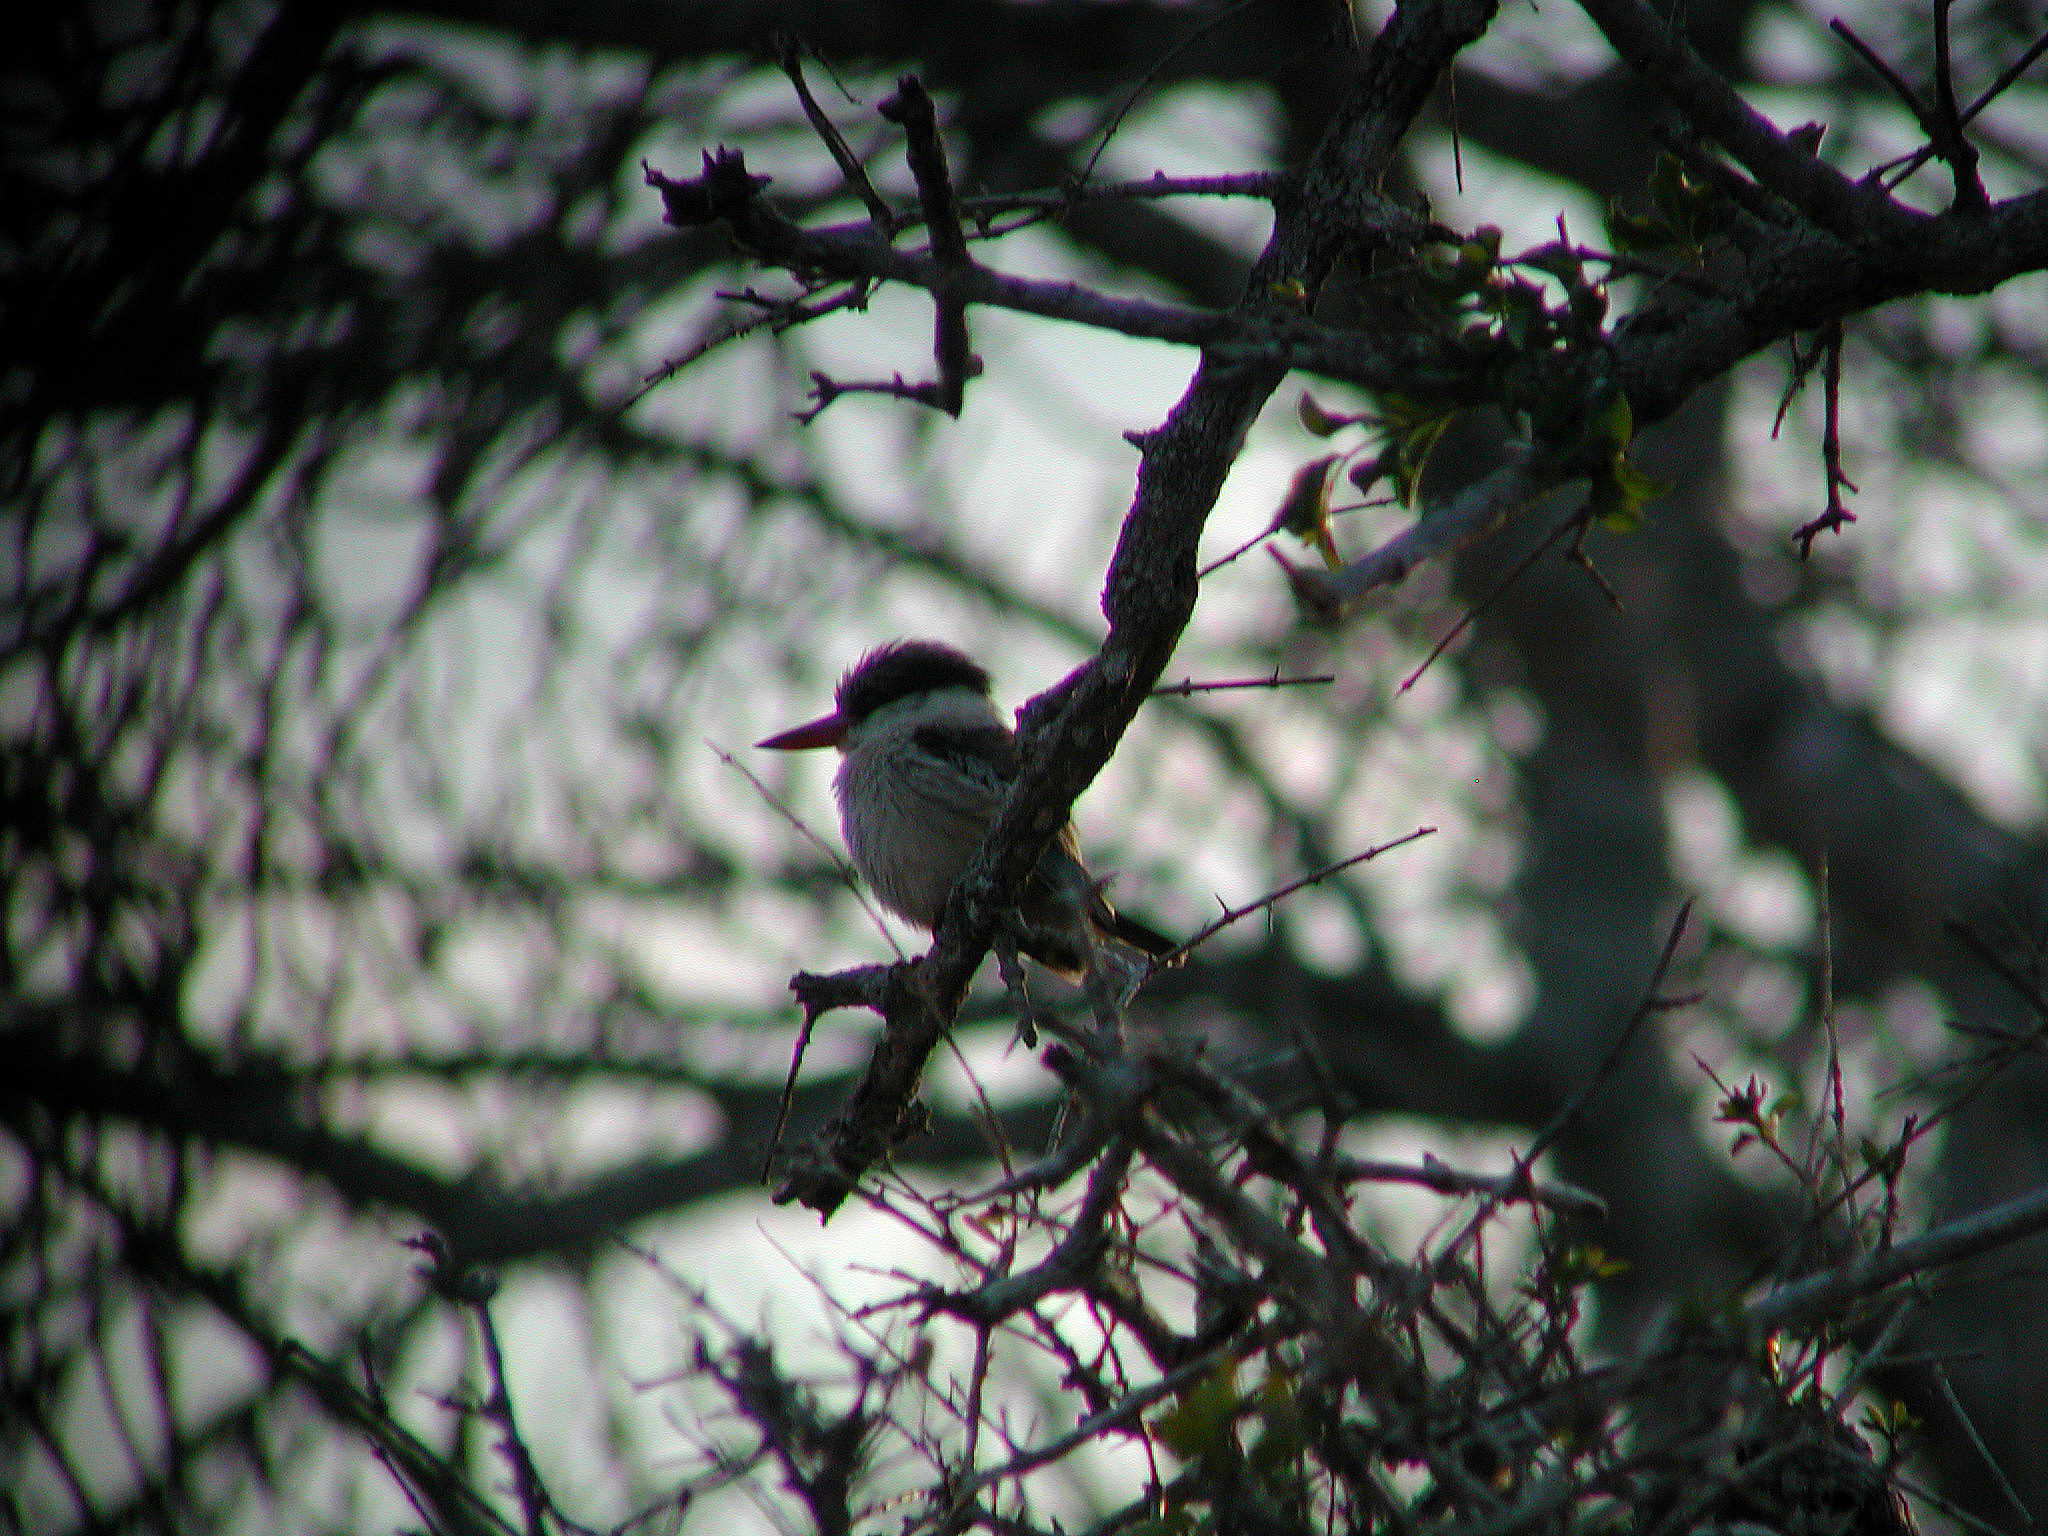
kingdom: Animalia
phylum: Chordata
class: Aves
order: Coraciiformes
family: Alcedinidae
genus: Halcyon
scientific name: Halcyon chelicuti
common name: Striped kingfisher
